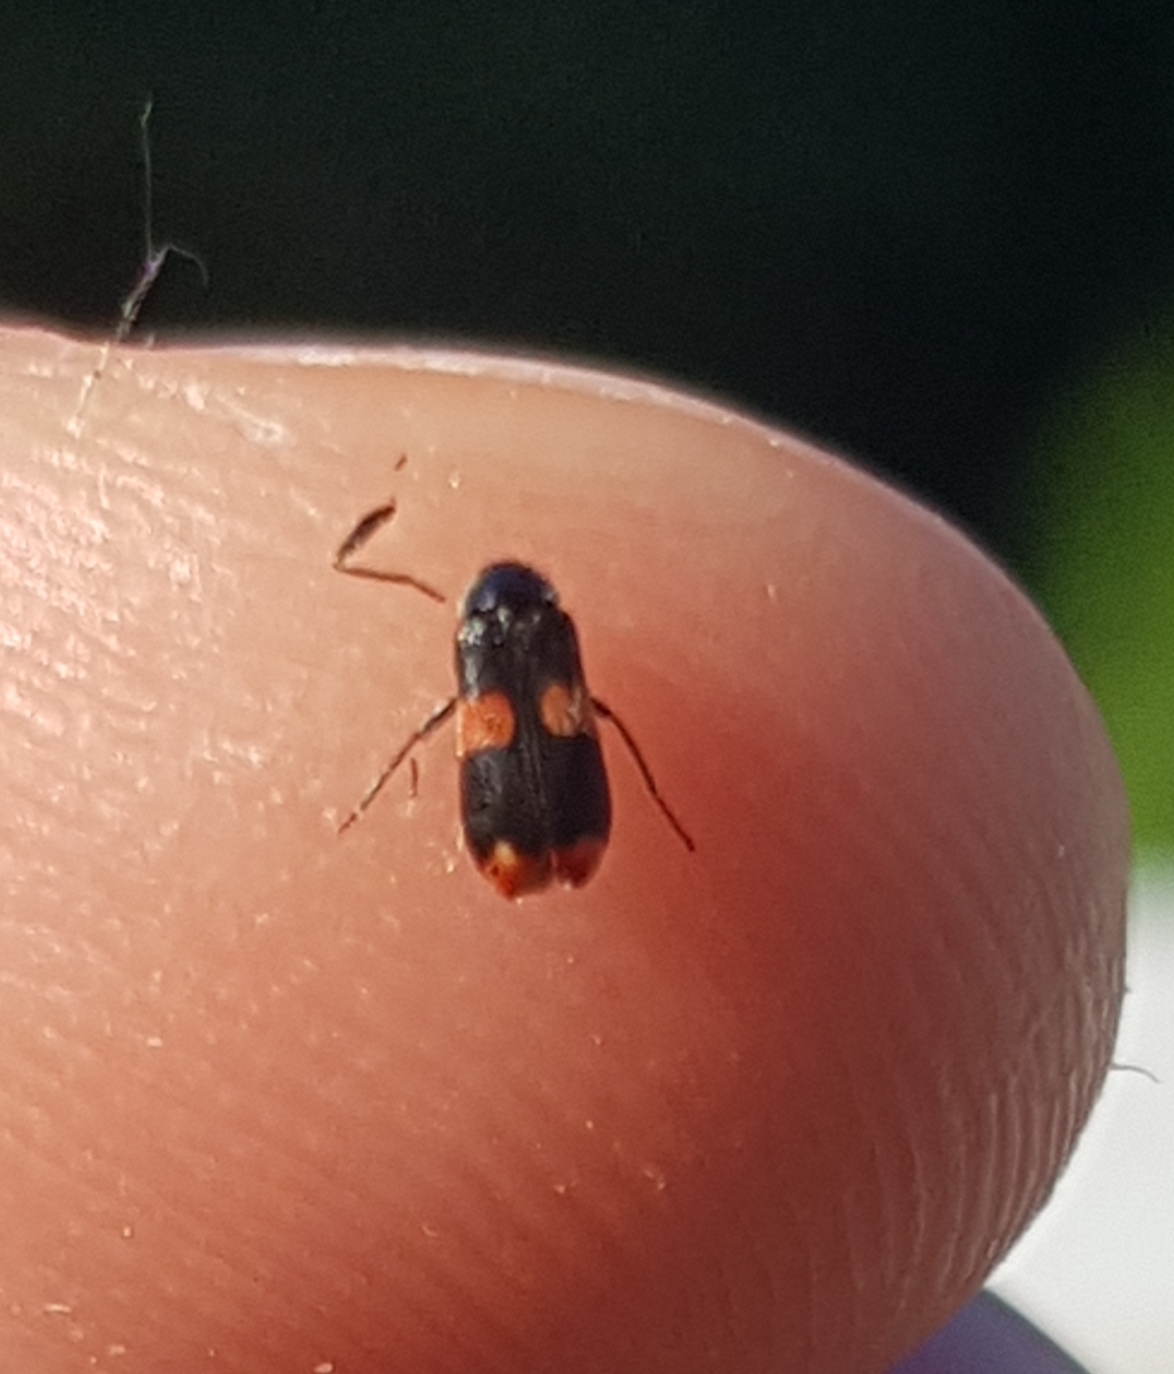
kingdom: Animalia
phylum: Arthropoda
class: Insecta
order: Coleoptera
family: Melyridae
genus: Anthocomus
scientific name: Anthocomus fasciatus
